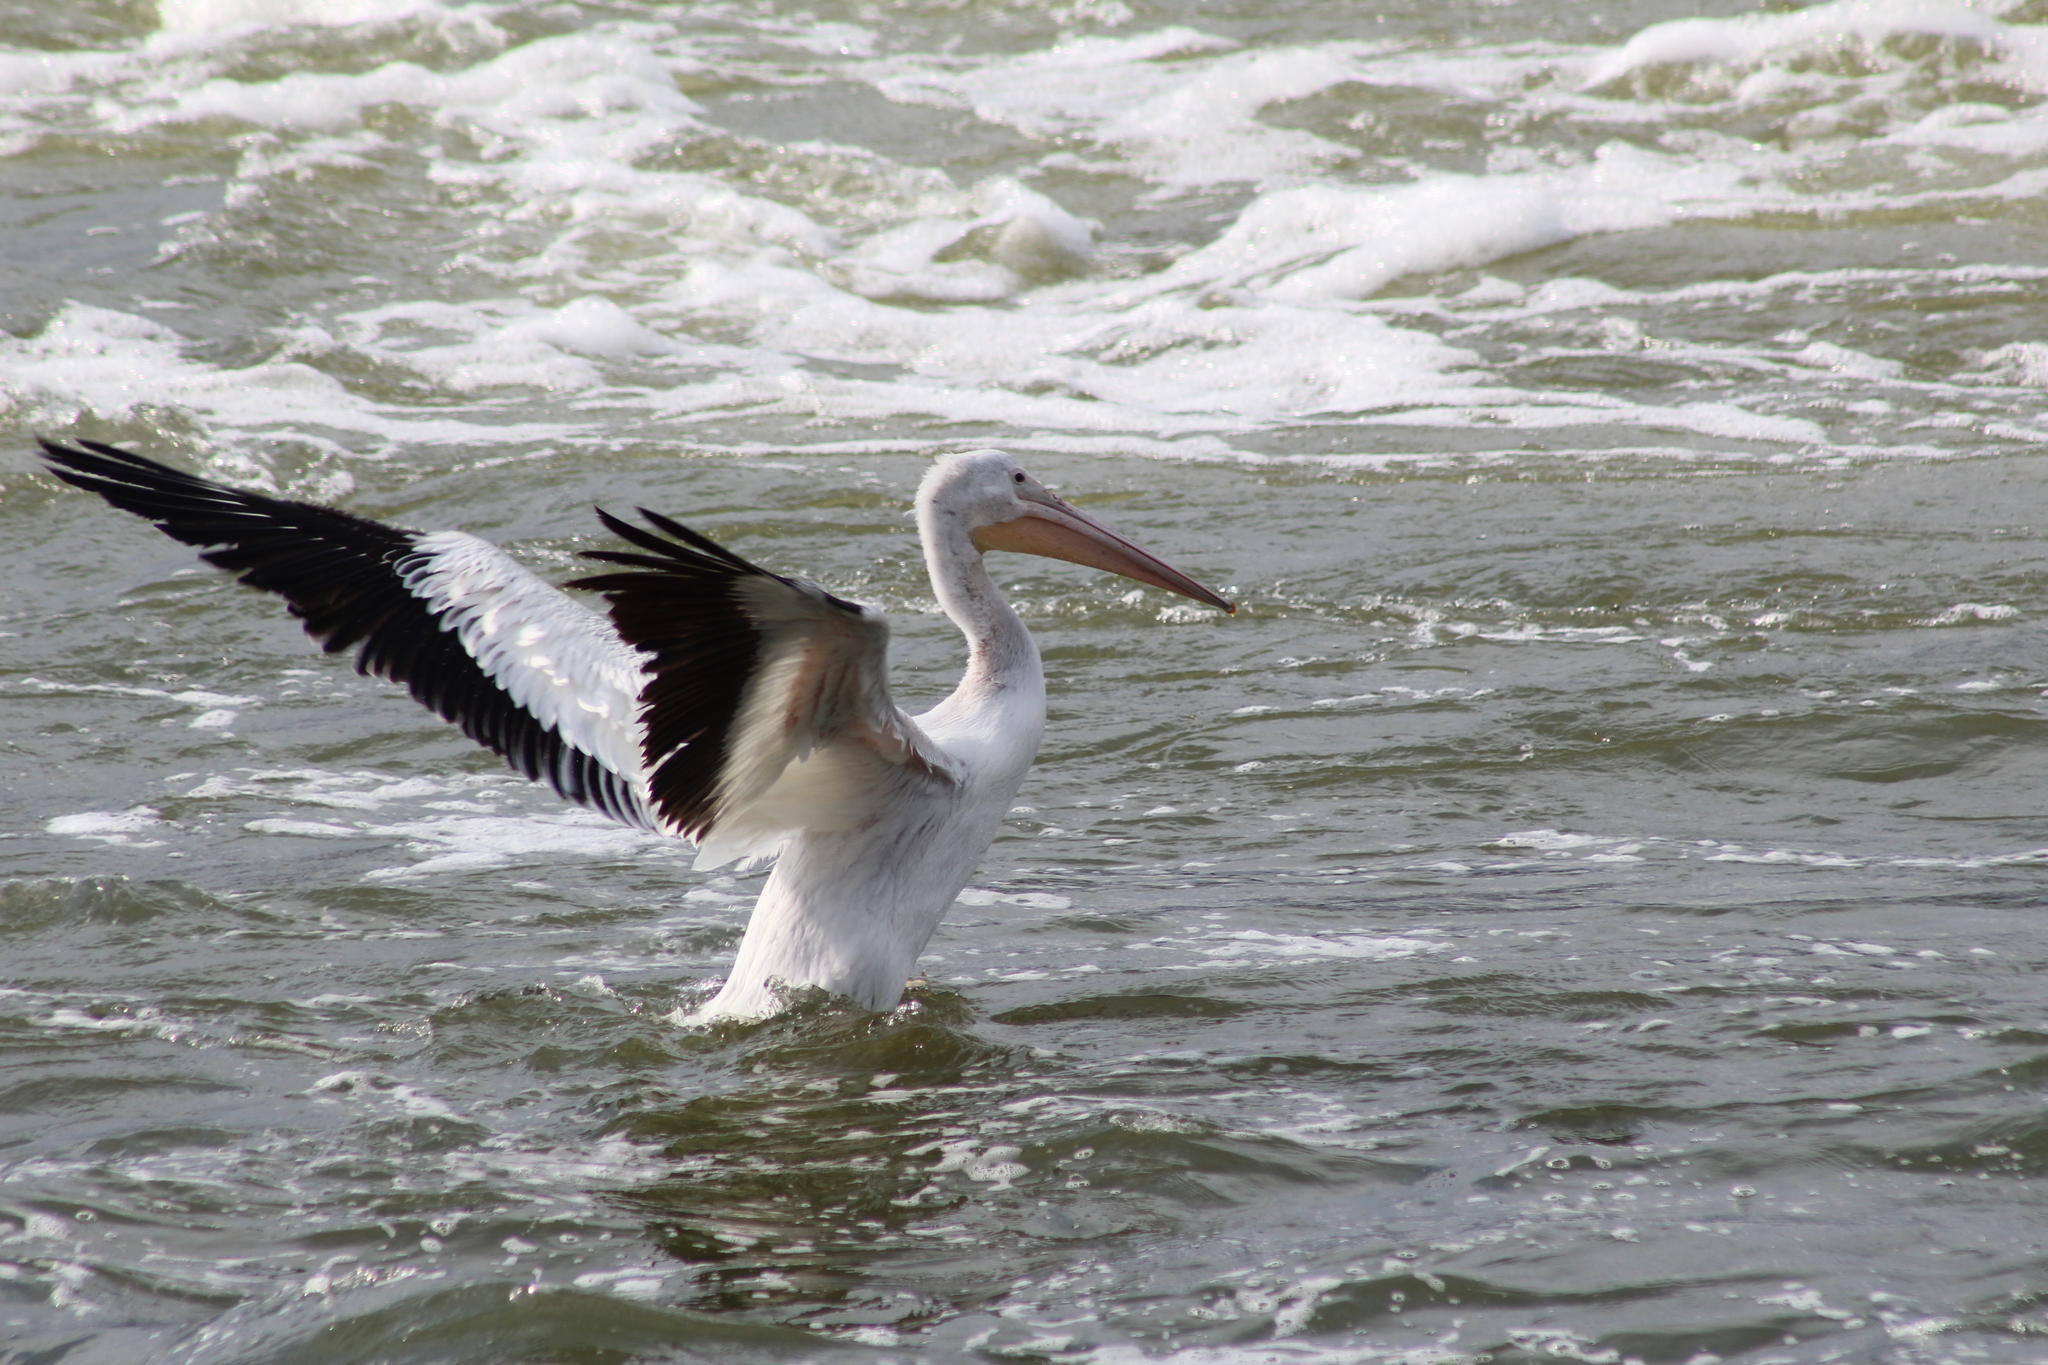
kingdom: Animalia
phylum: Chordata
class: Aves
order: Pelecaniformes
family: Pelecanidae
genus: Pelecanus
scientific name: Pelecanus erythrorhynchos
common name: American white pelican
